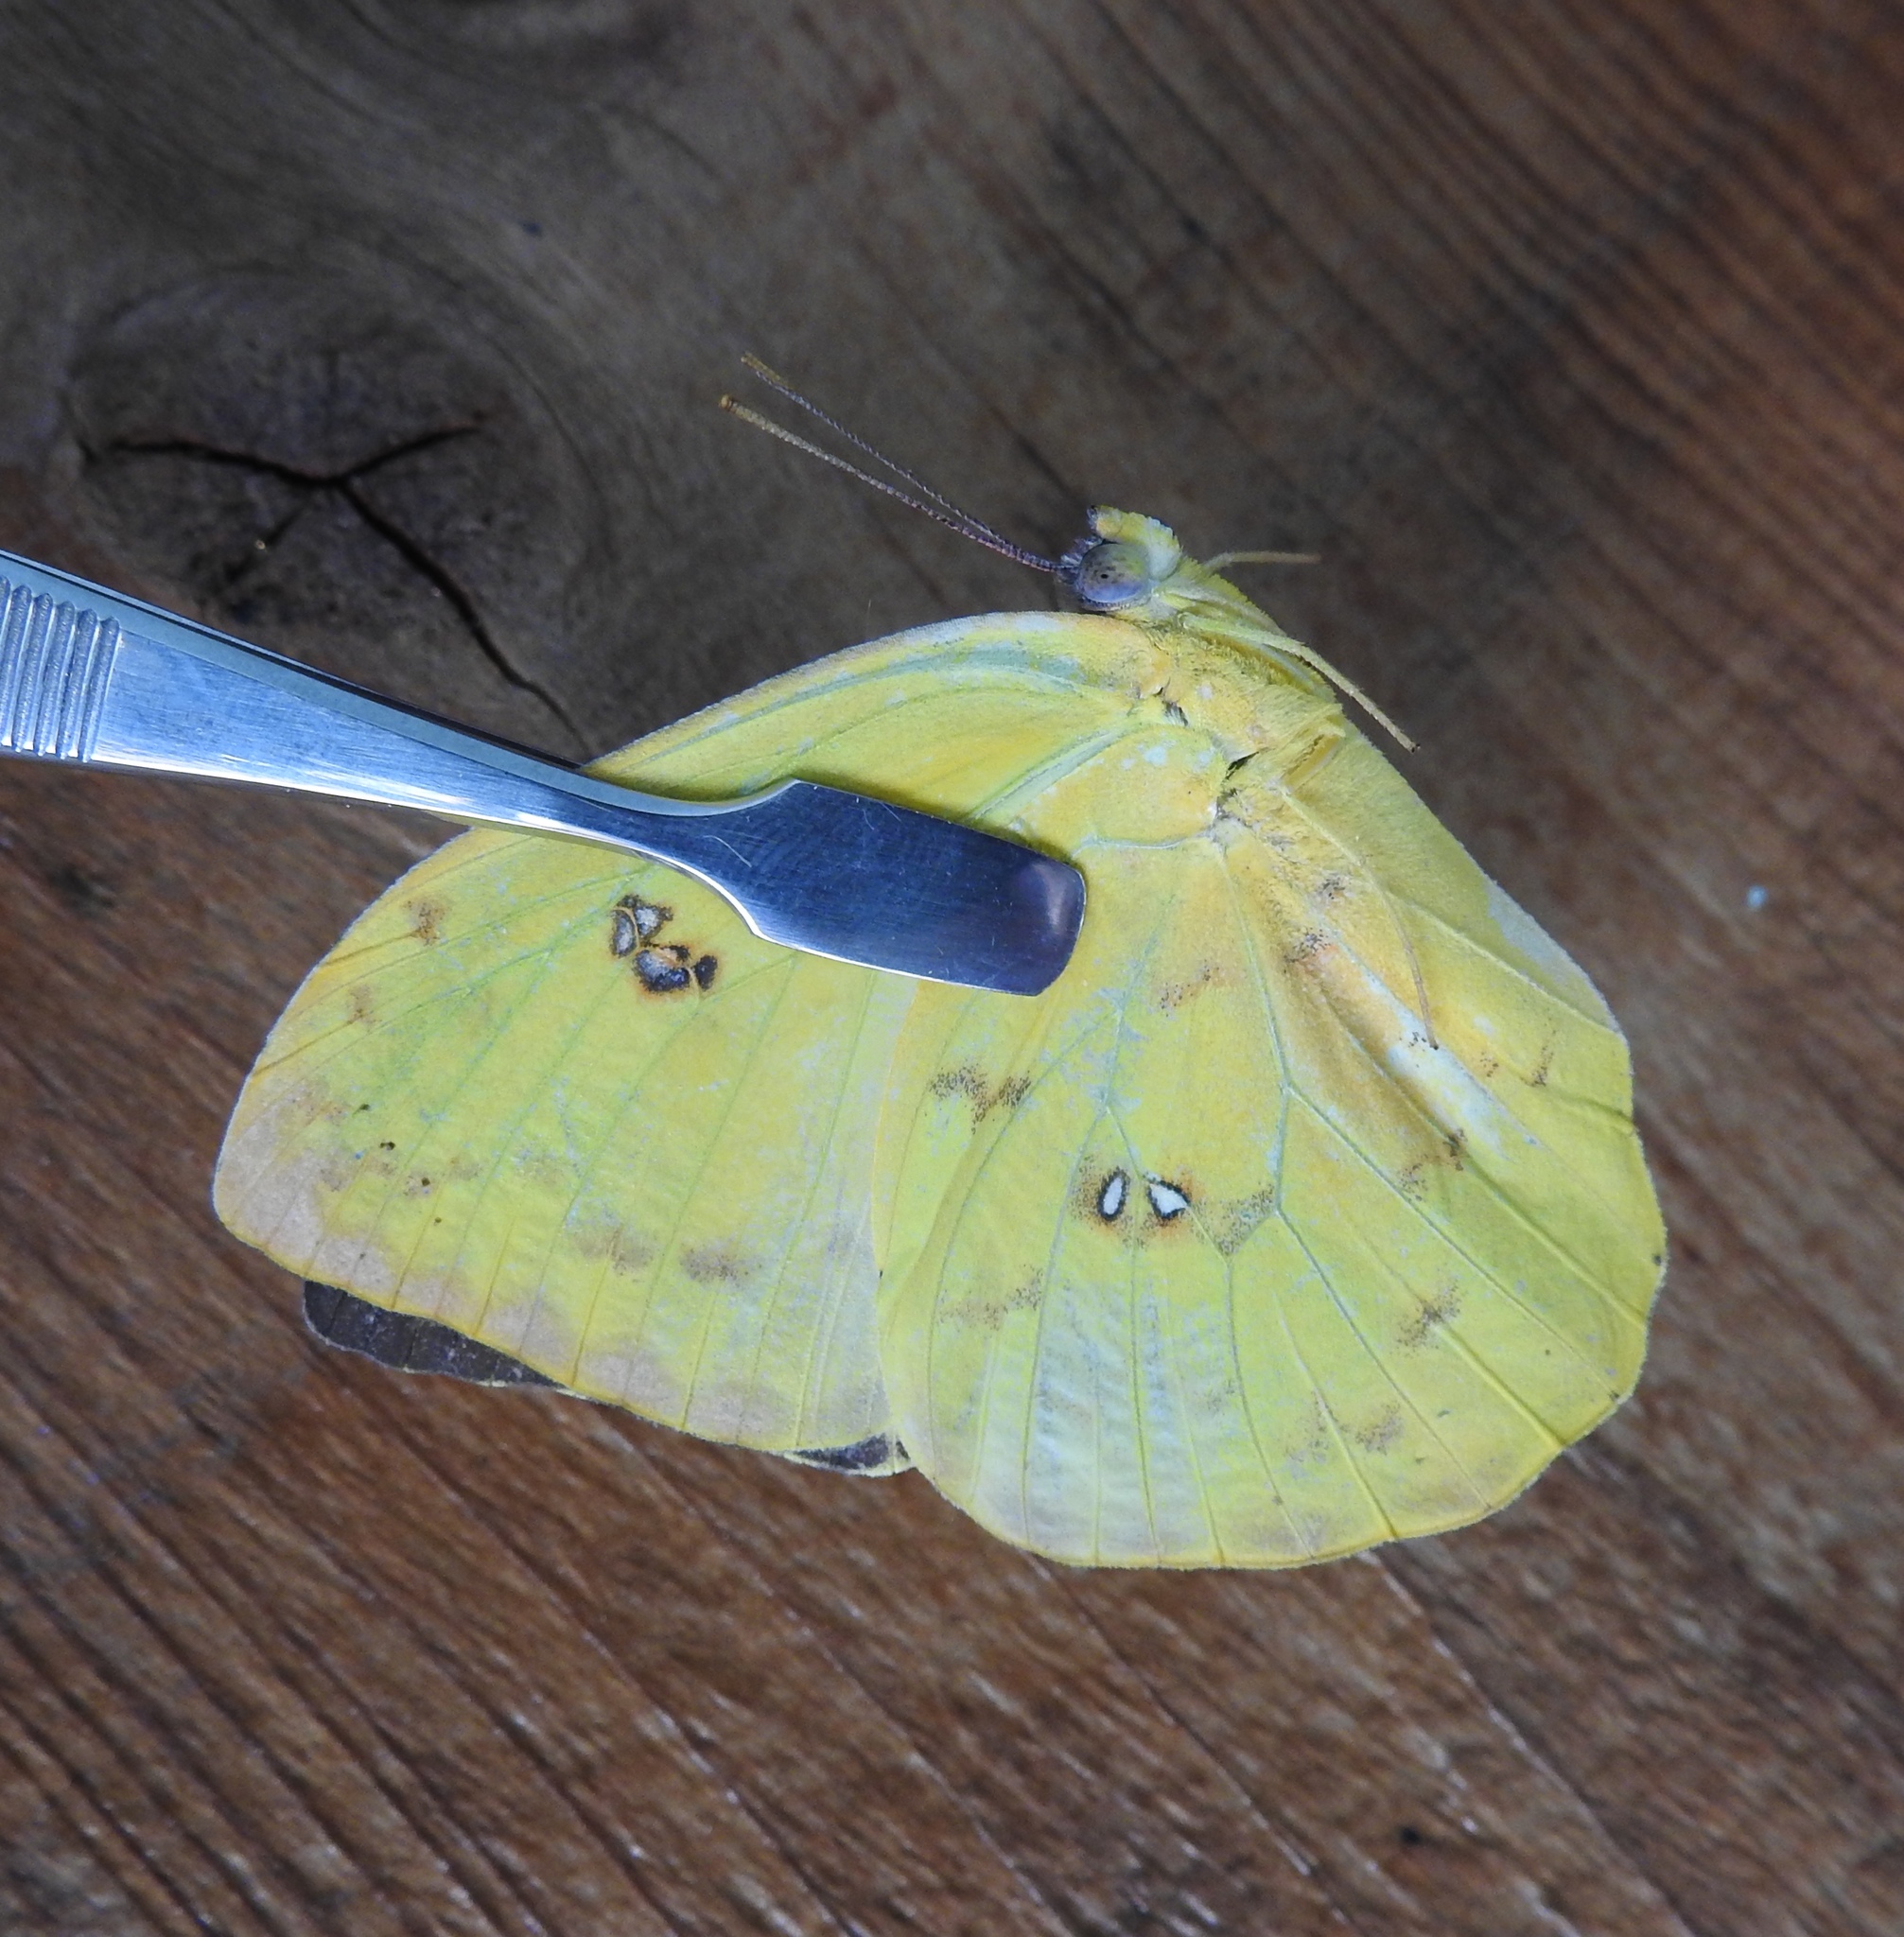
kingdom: Animalia
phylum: Arthropoda
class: Insecta
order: Lepidoptera
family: Pieridae
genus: Phoebis
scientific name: Phoebis philea
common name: Orange-barred giant sulphur
